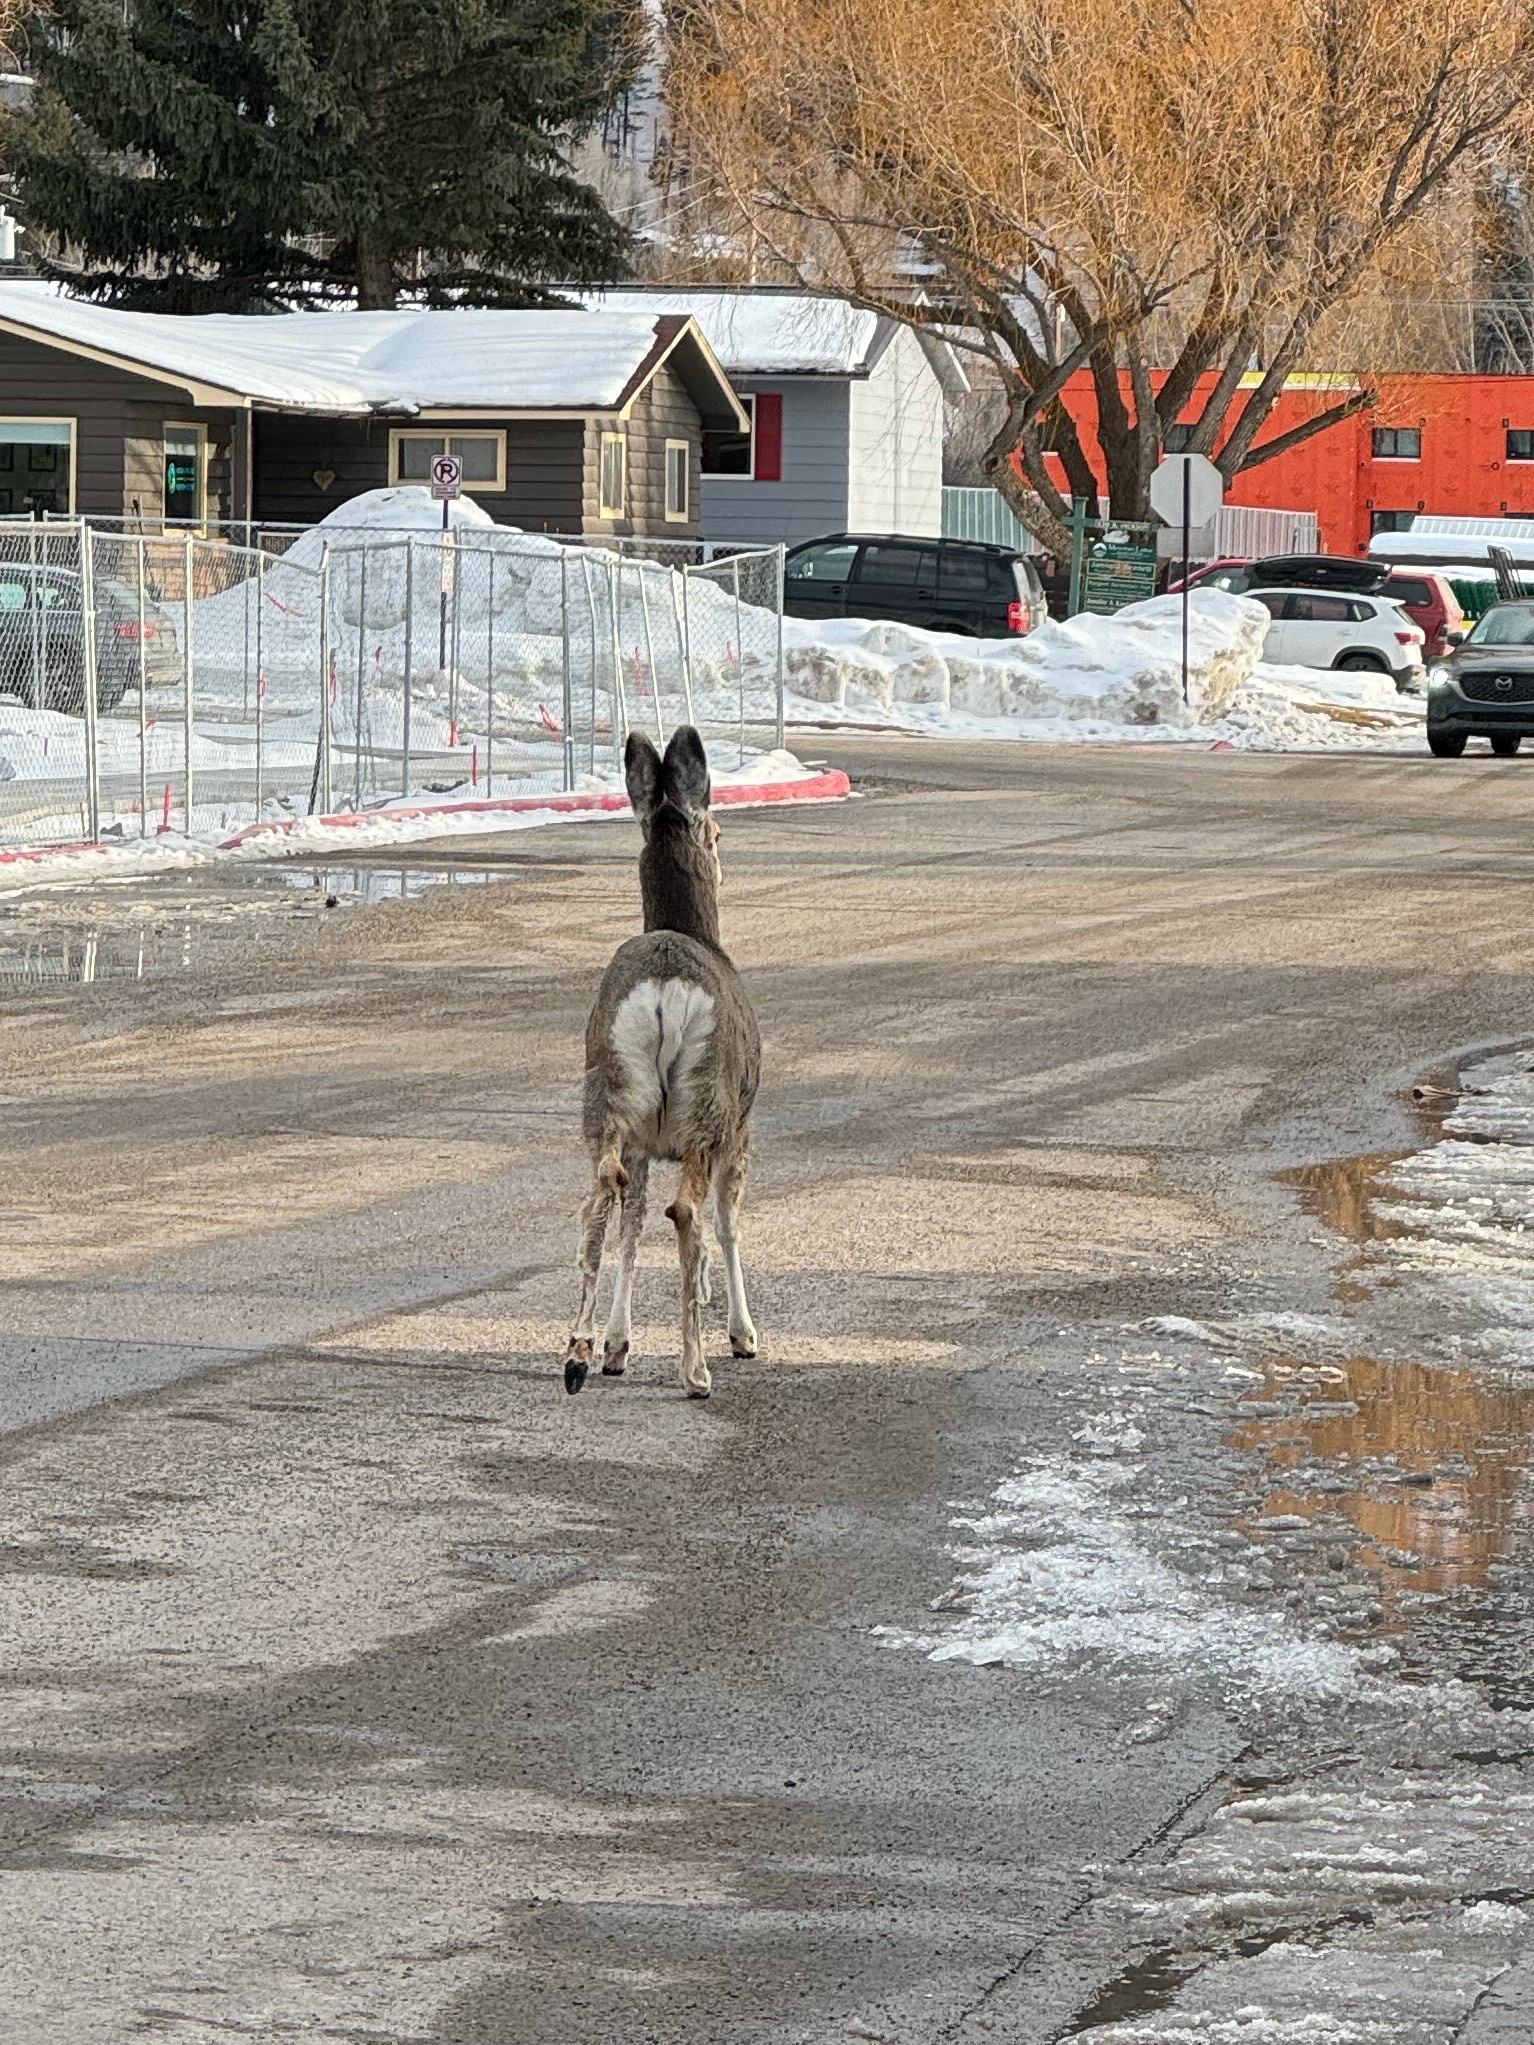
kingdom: Animalia
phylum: Chordata
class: Mammalia
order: Artiodactyla
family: Cervidae
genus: Odocoileus
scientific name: Odocoileus hemionus
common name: Mule deer
